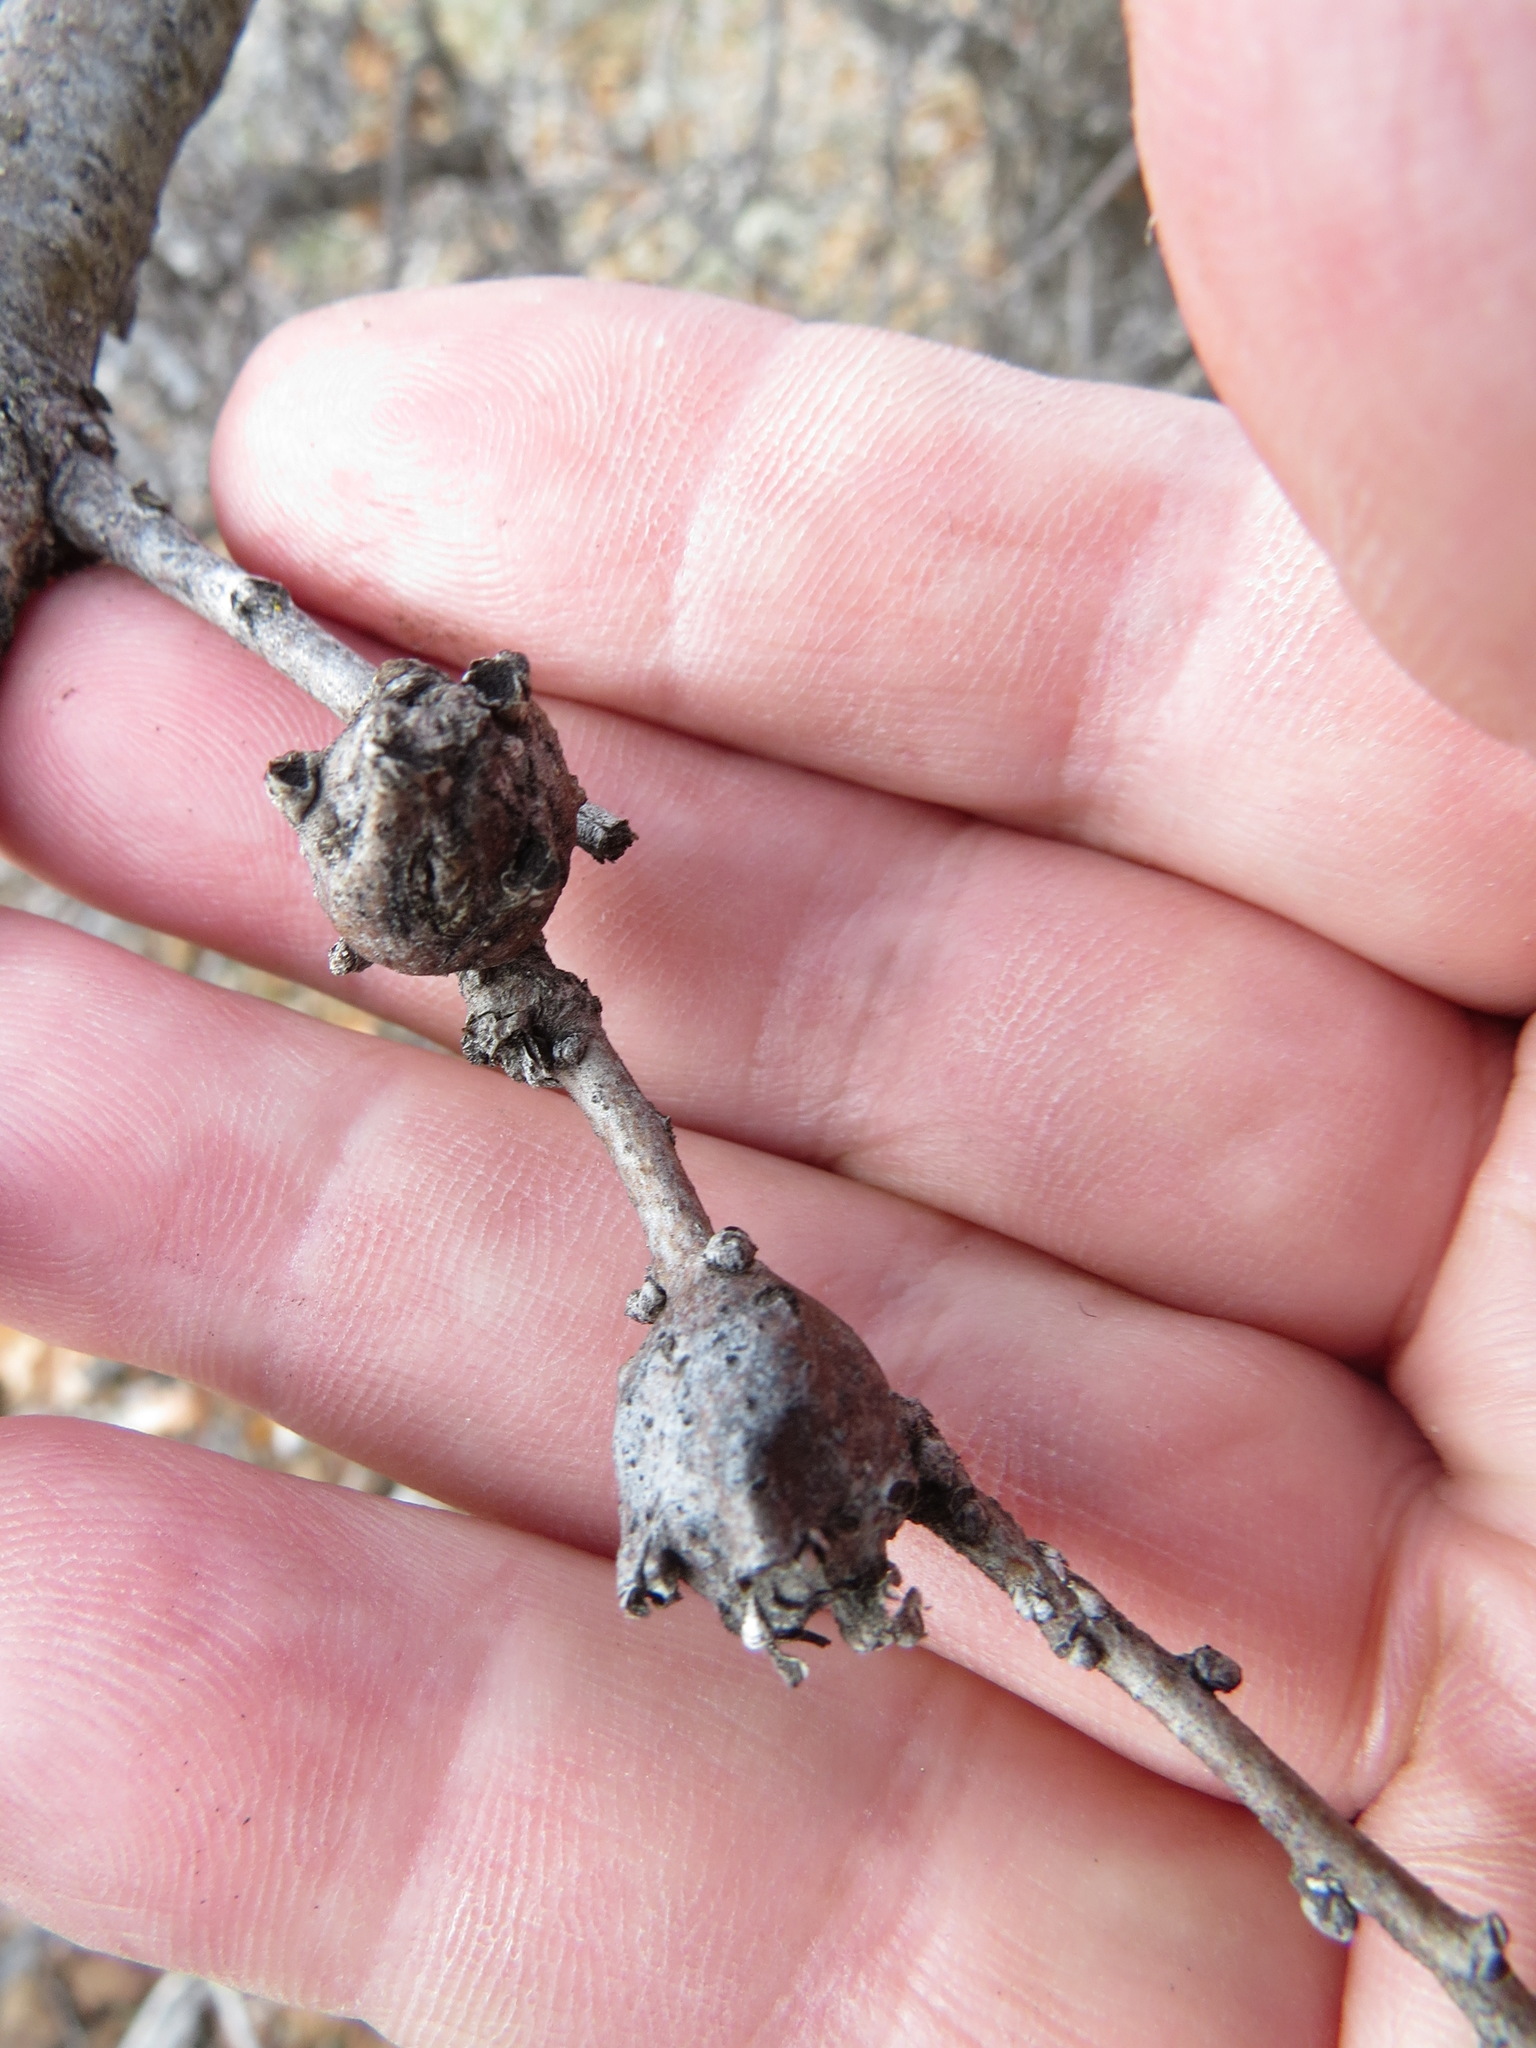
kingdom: Animalia
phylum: Arthropoda
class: Insecta
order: Hymenoptera
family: Cynipidae
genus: Andricus
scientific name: Andricus
